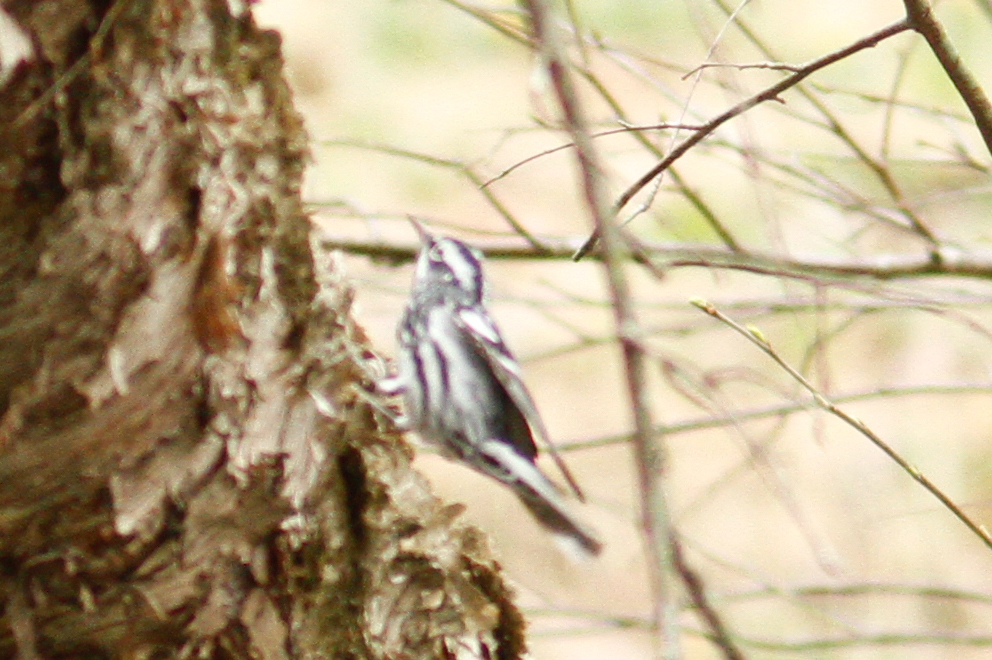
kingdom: Animalia
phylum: Chordata
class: Aves
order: Passeriformes
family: Parulidae
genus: Mniotilta
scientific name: Mniotilta varia
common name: Black-and-white warbler
